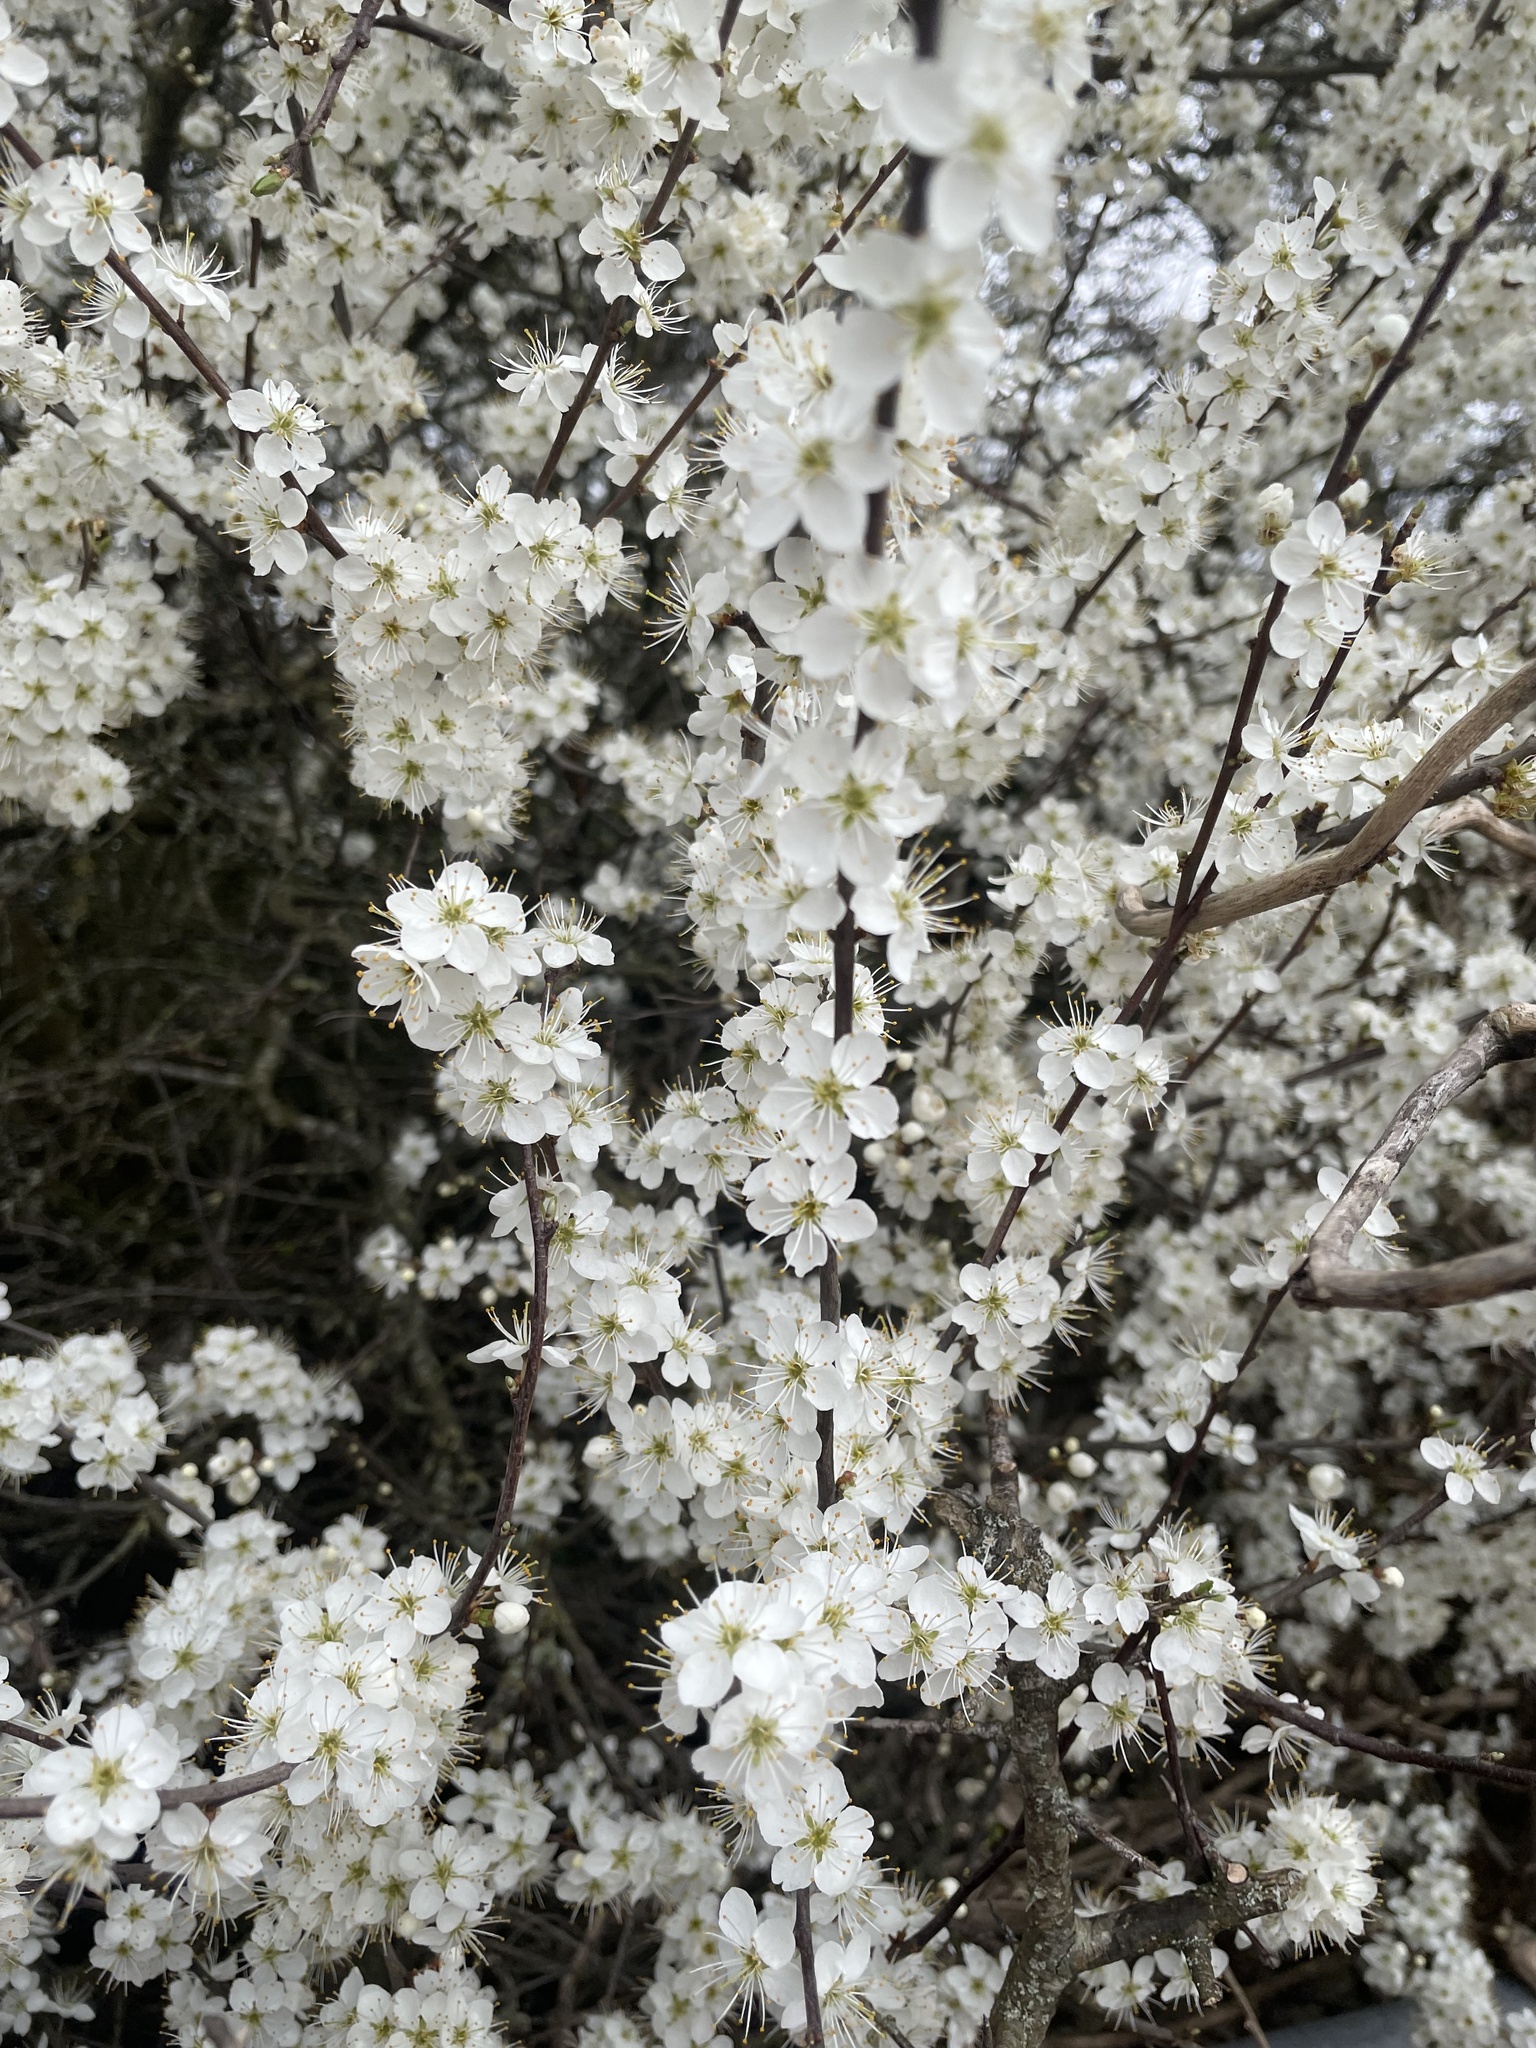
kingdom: Plantae
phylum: Tracheophyta
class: Magnoliopsida
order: Rosales
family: Rosaceae
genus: Prunus
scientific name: Prunus spinosa
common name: Blackthorn
